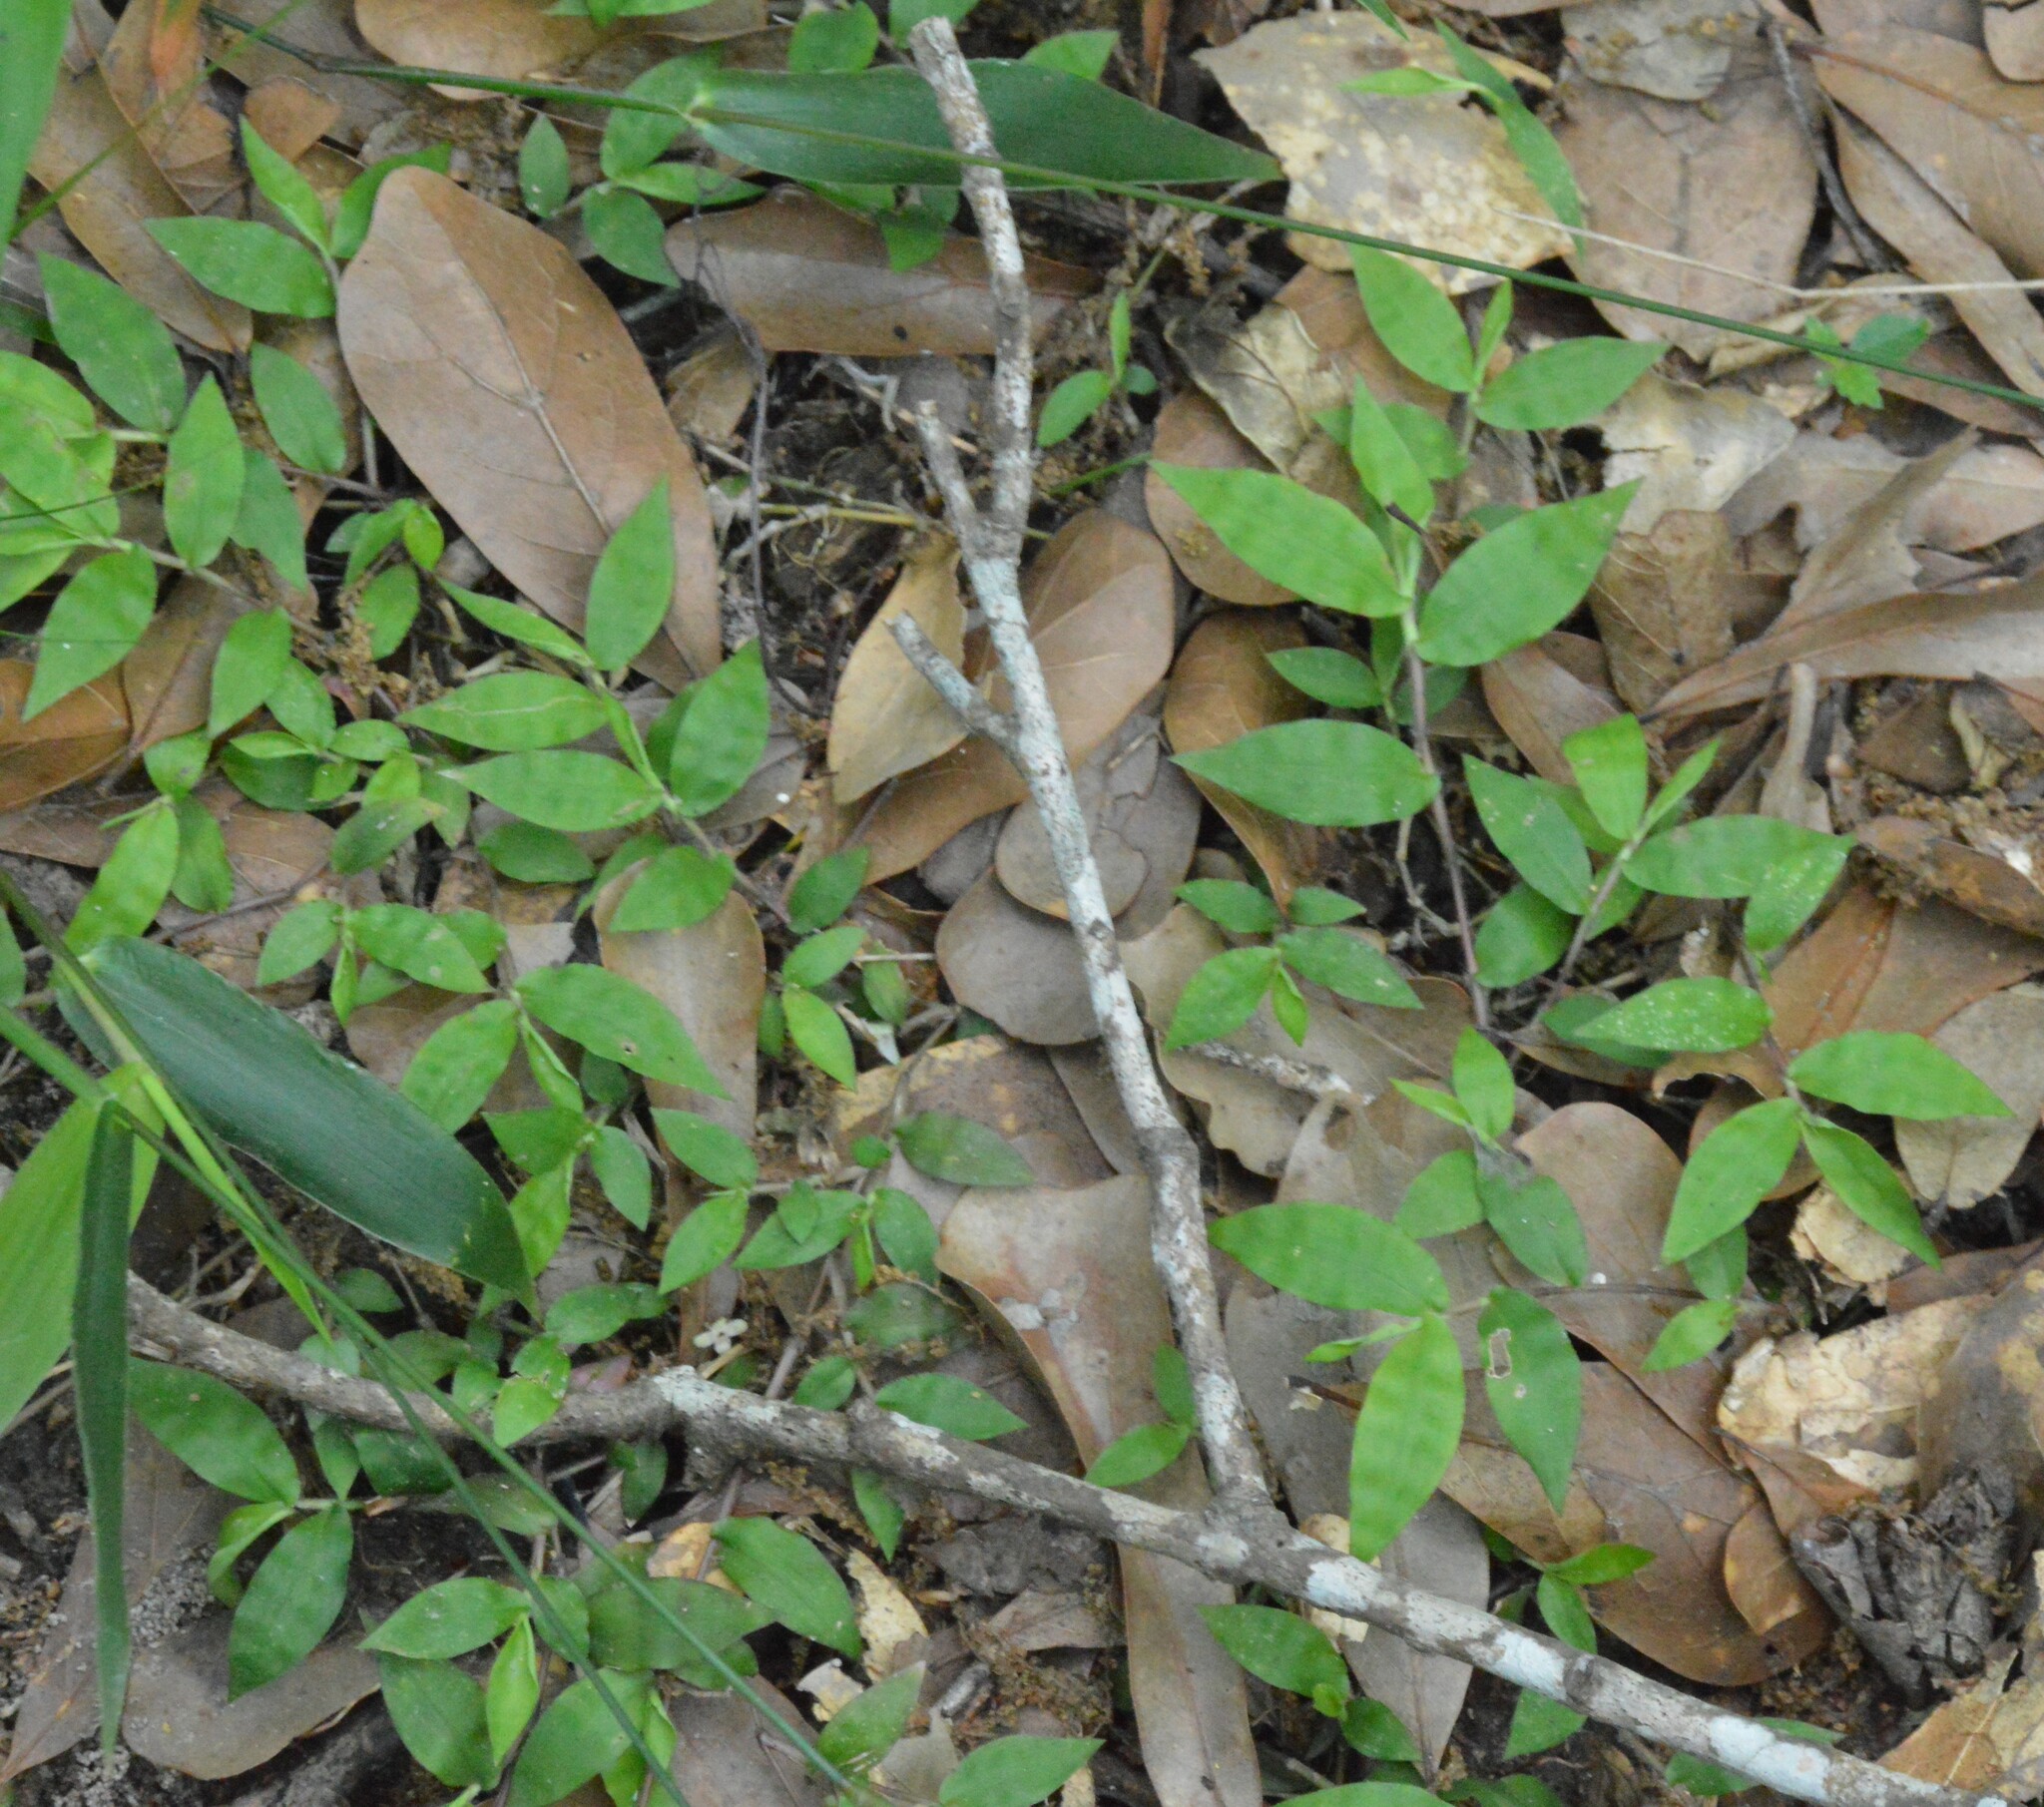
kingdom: Plantae
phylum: Tracheophyta
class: Liliopsida
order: Poales
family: Poaceae
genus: Oplismenus
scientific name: Oplismenus hirtellus
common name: Basketgrass
